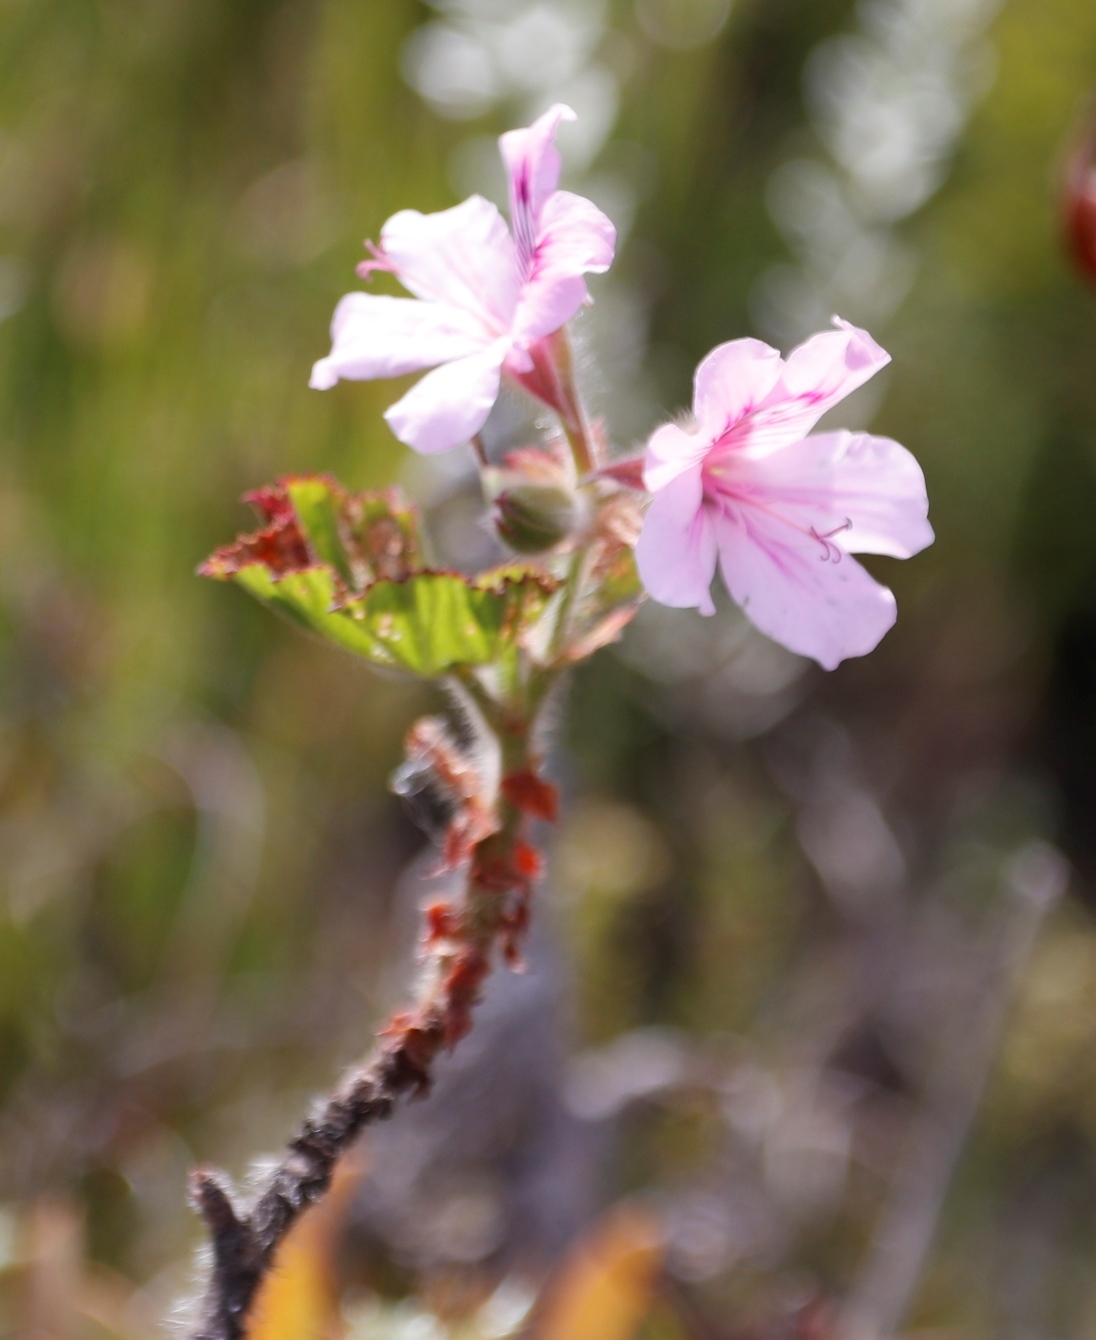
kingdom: Plantae
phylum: Tracheophyta
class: Magnoliopsida
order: Geraniales
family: Geraniaceae
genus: Pelargonium
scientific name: Pelargonium cucullatum
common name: Tree pelargonium
